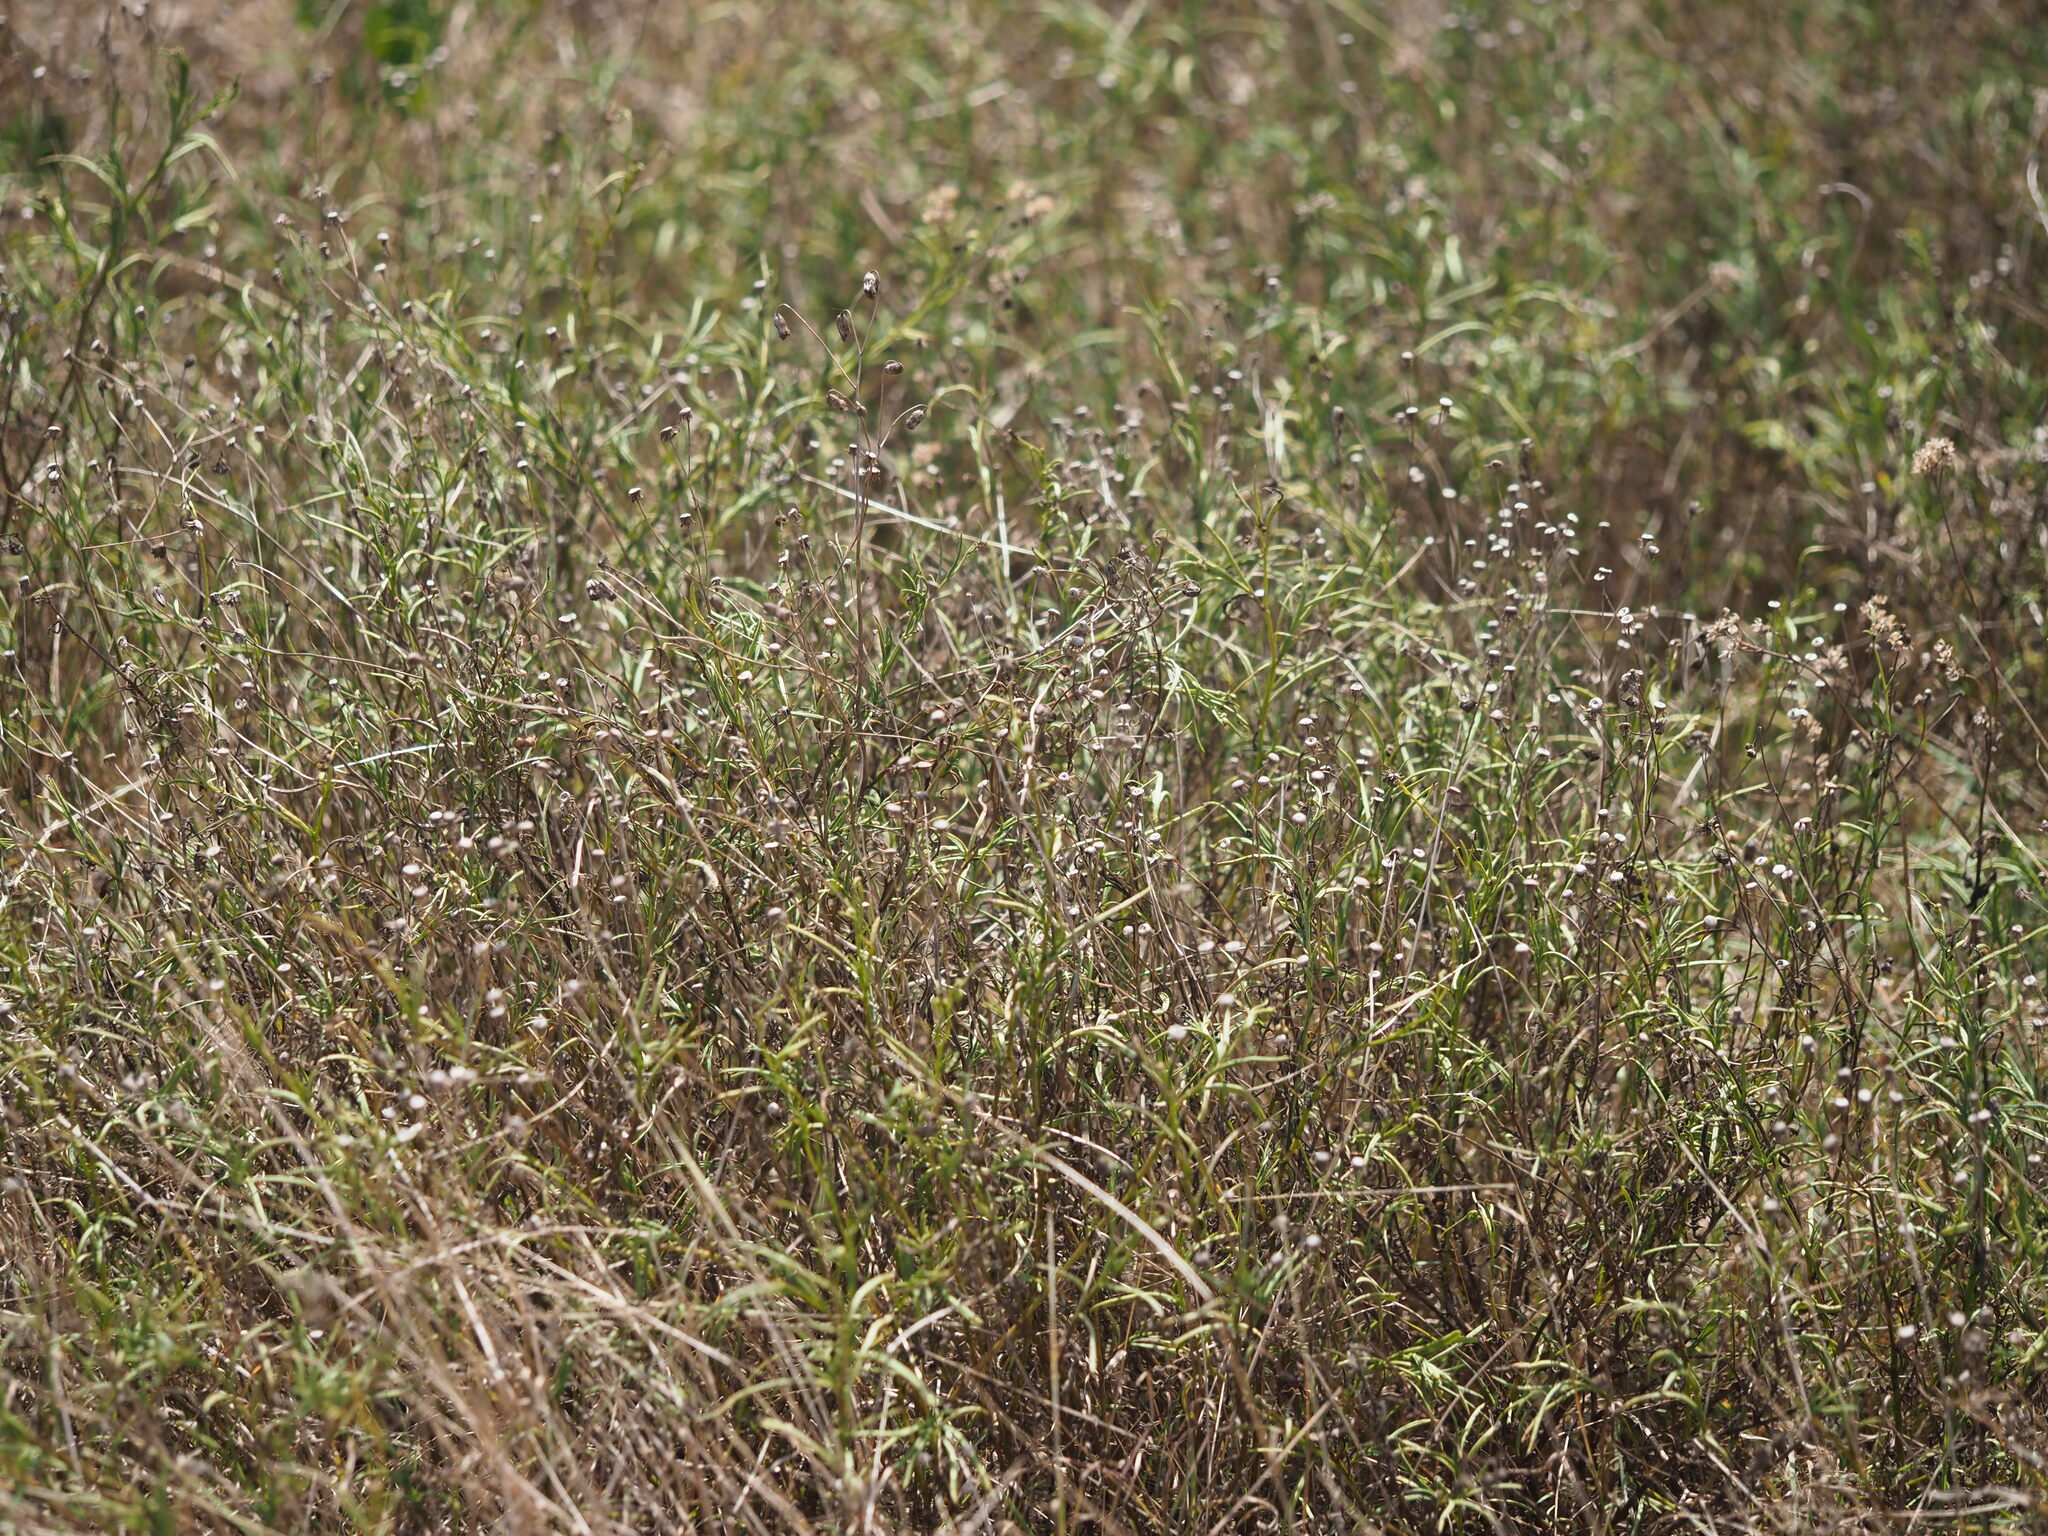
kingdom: Plantae
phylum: Tracheophyta
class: Magnoliopsida
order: Asterales
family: Asteraceae
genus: Senecio
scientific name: Senecio madagascariensis
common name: Madagascar ragwort
